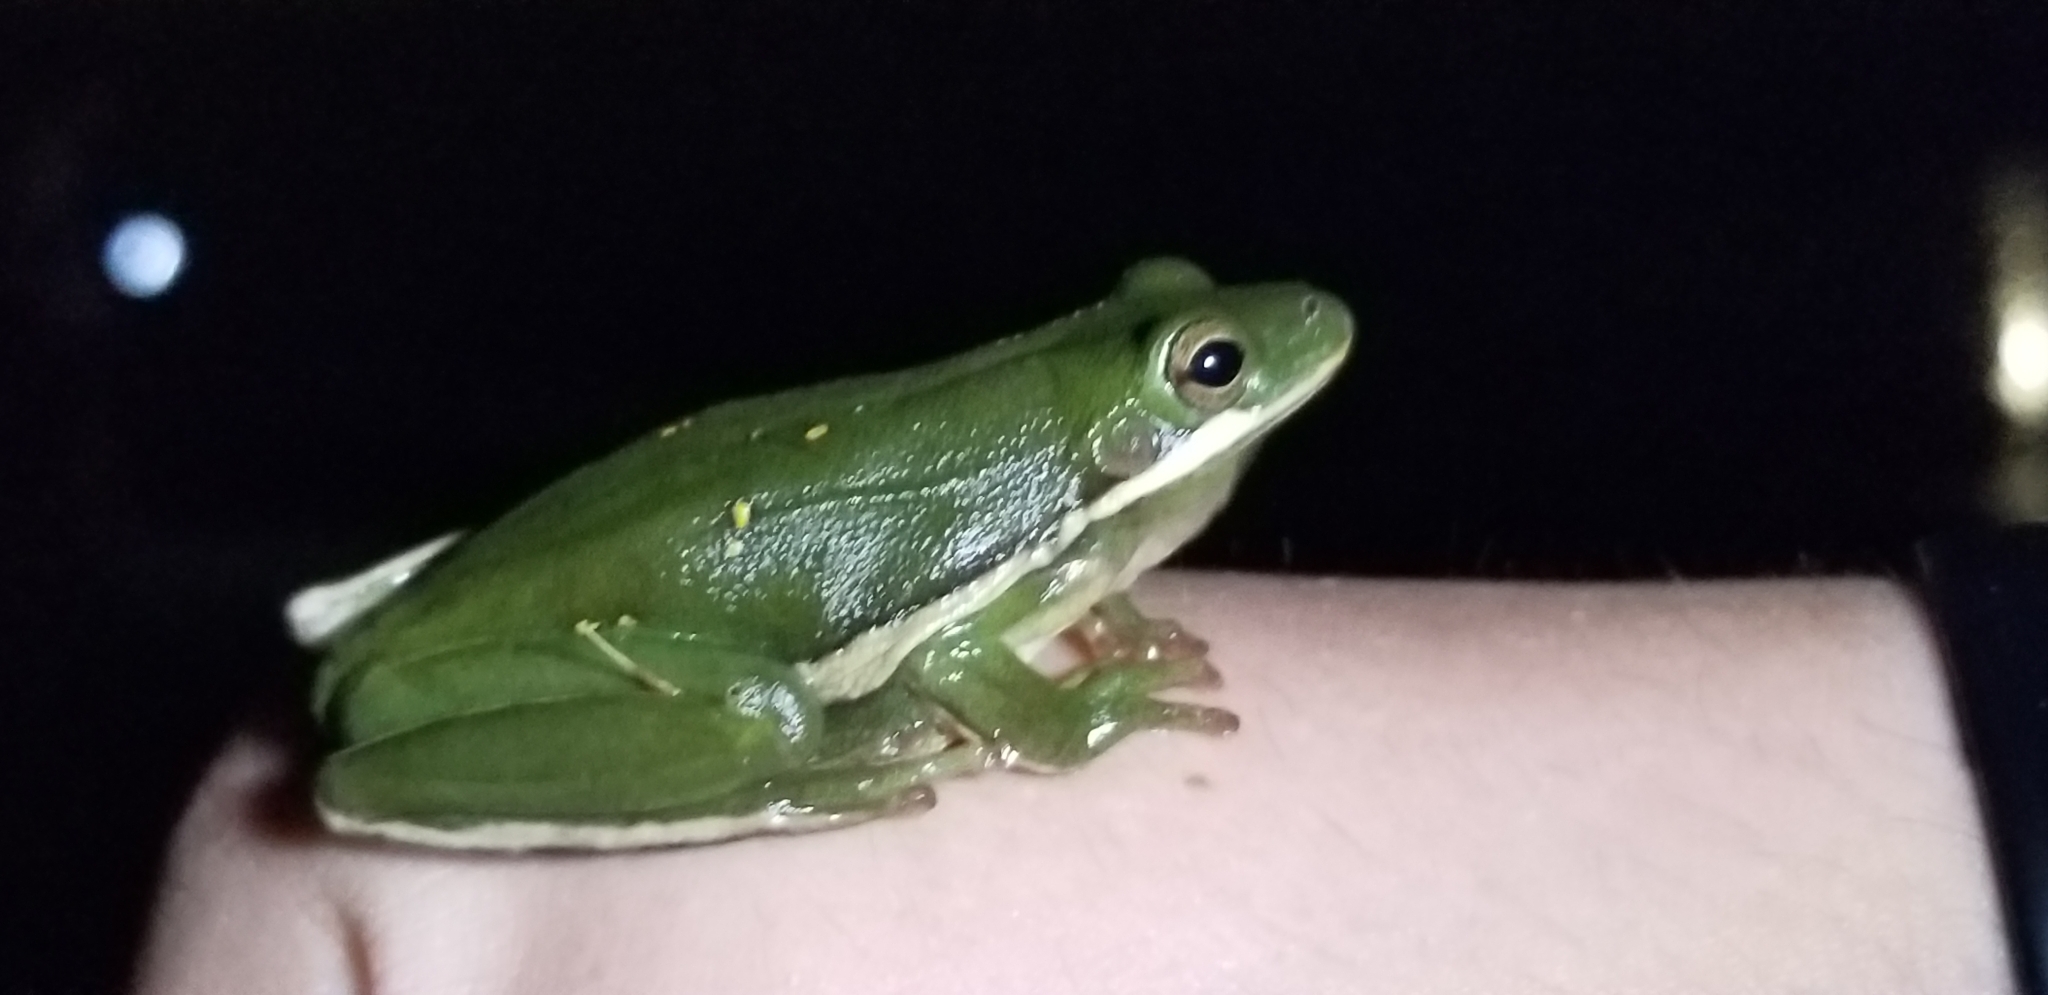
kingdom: Animalia
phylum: Chordata
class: Amphibia
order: Anura
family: Hylidae
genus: Dryophytes
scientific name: Dryophytes cinereus
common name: Green treefrog
